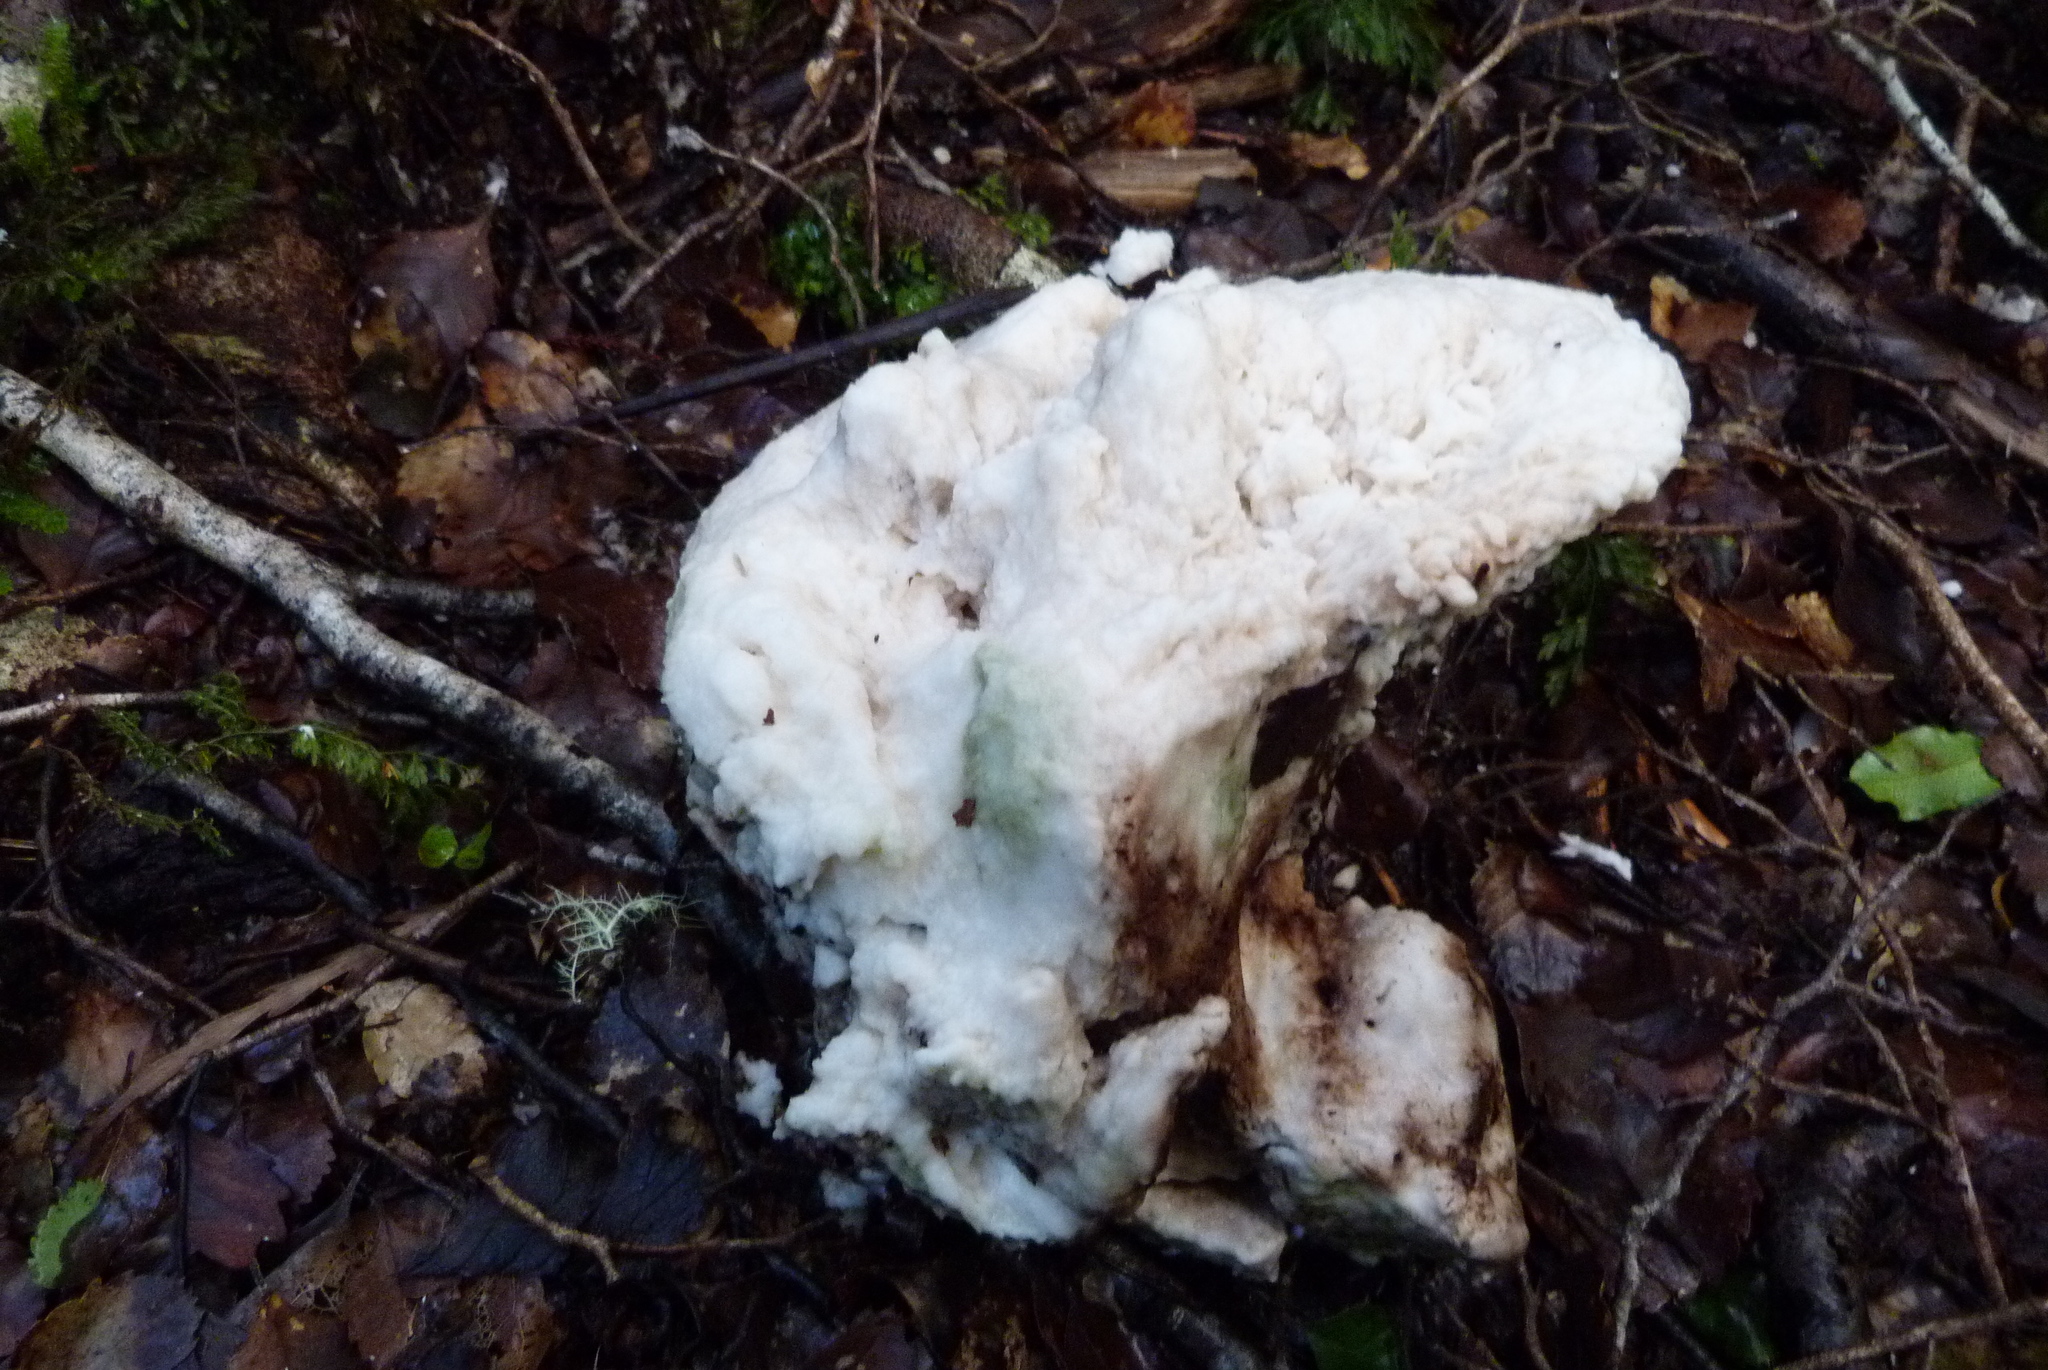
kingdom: Fungi
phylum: Basidiomycota
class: Agaricomycetes
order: Polyporales
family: Laetiporaceae
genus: Laetiporus
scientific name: Laetiporus portentosus
